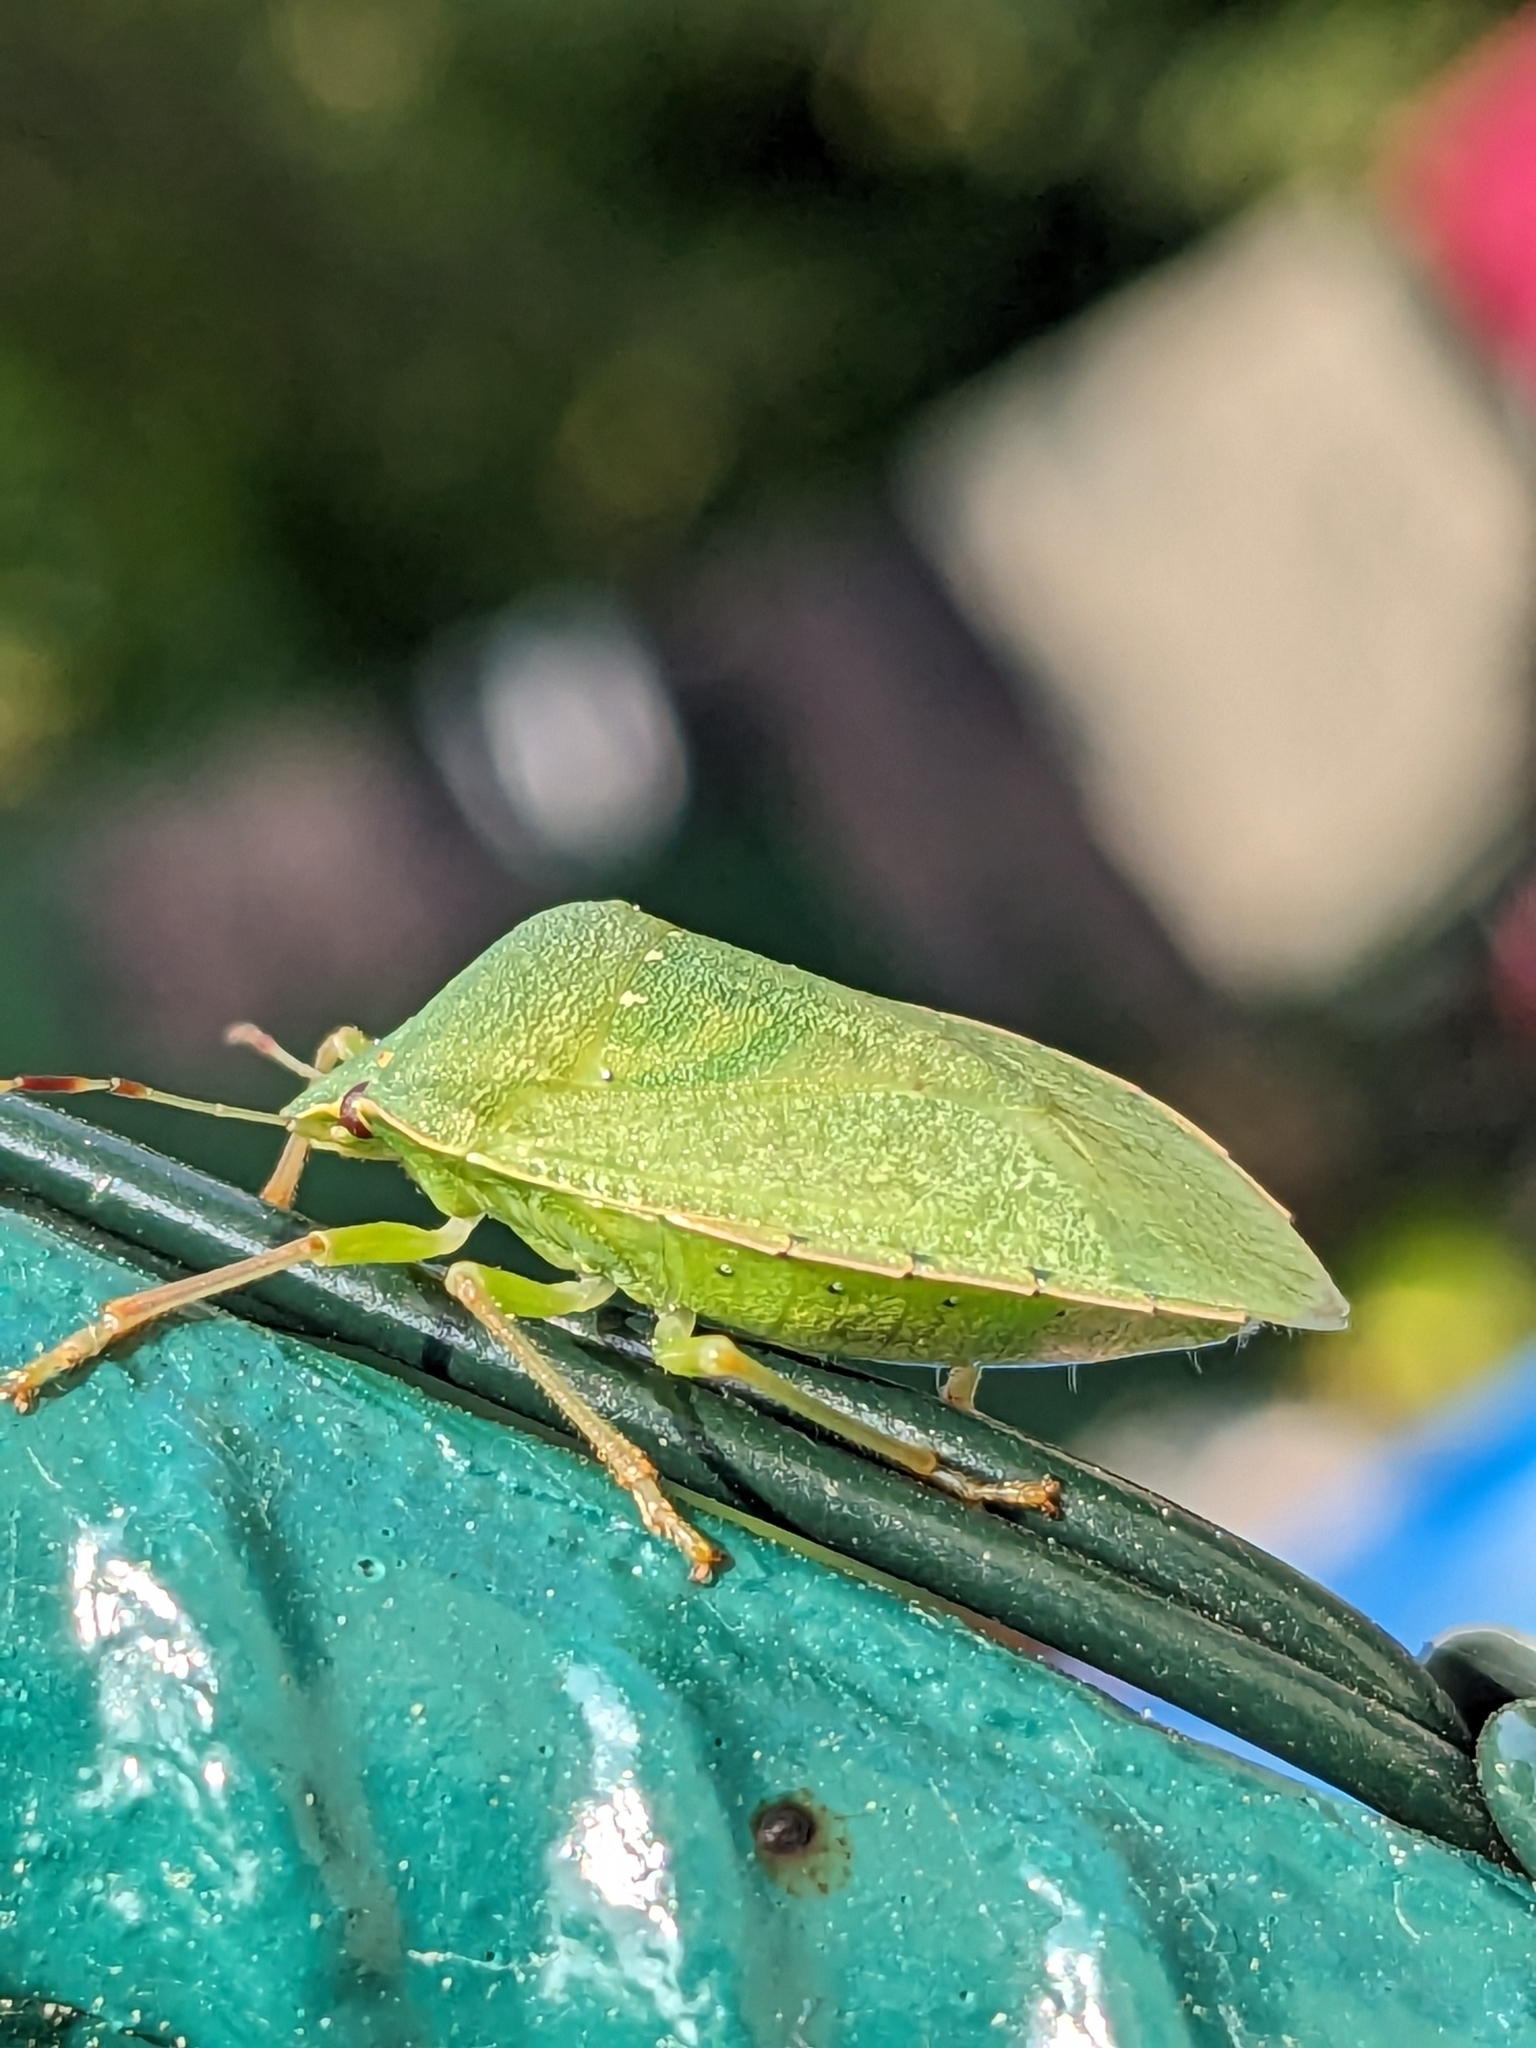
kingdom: Animalia
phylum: Arthropoda
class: Insecta
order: Hemiptera
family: Pentatomidae
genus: Nezara
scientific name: Nezara viridula
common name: Southern green stink bug
